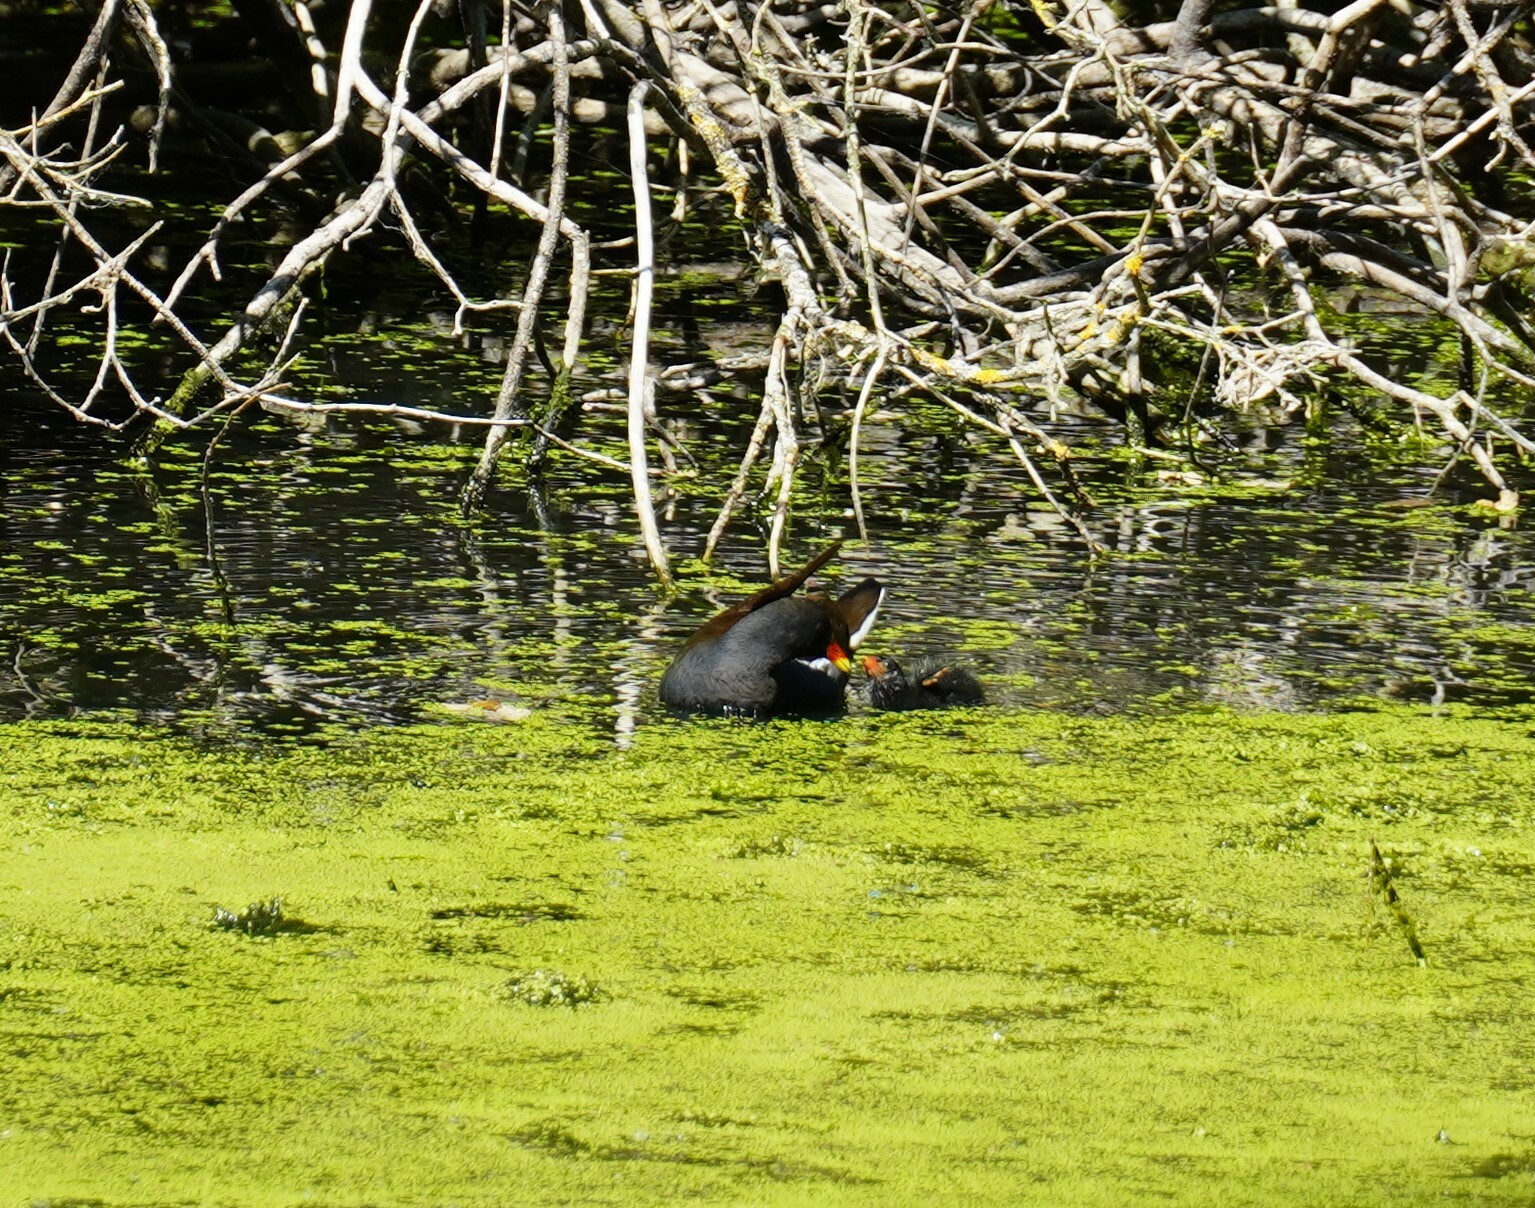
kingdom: Animalia
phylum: Chordata
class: Aves
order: Gruiformes
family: Rallidae
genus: Gallinula
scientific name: Gallinula chloropus
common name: Common moorhen
